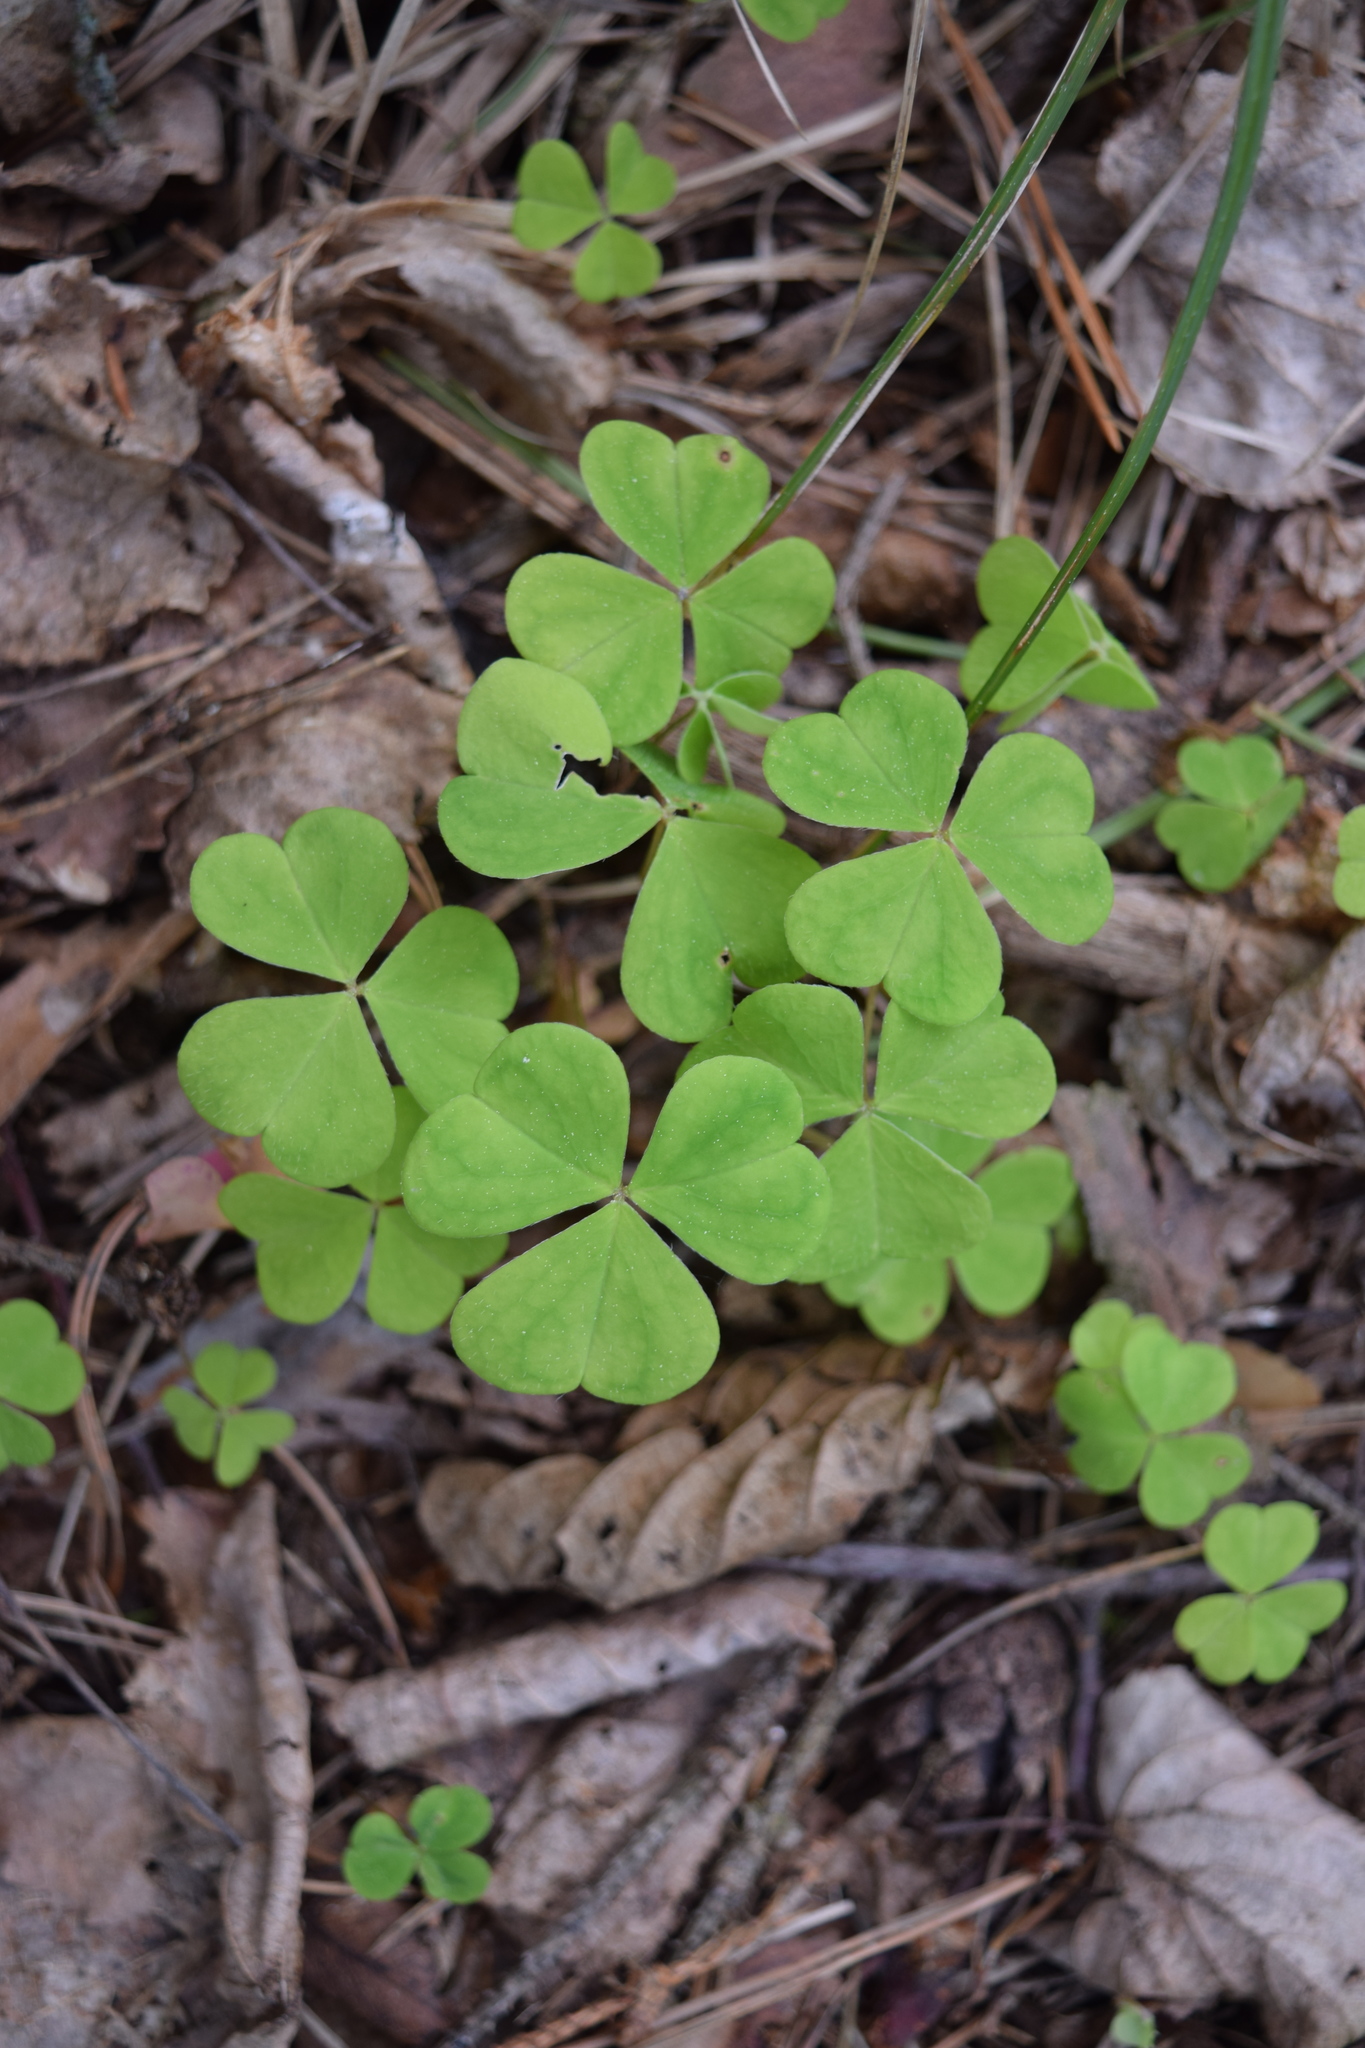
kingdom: Plantae
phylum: Tracheophyta
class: Magnoliopsida
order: Oxalidales
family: Oxalidaceae
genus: Oxalis
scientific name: Oxalis acetosella
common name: Wood-sorrel
